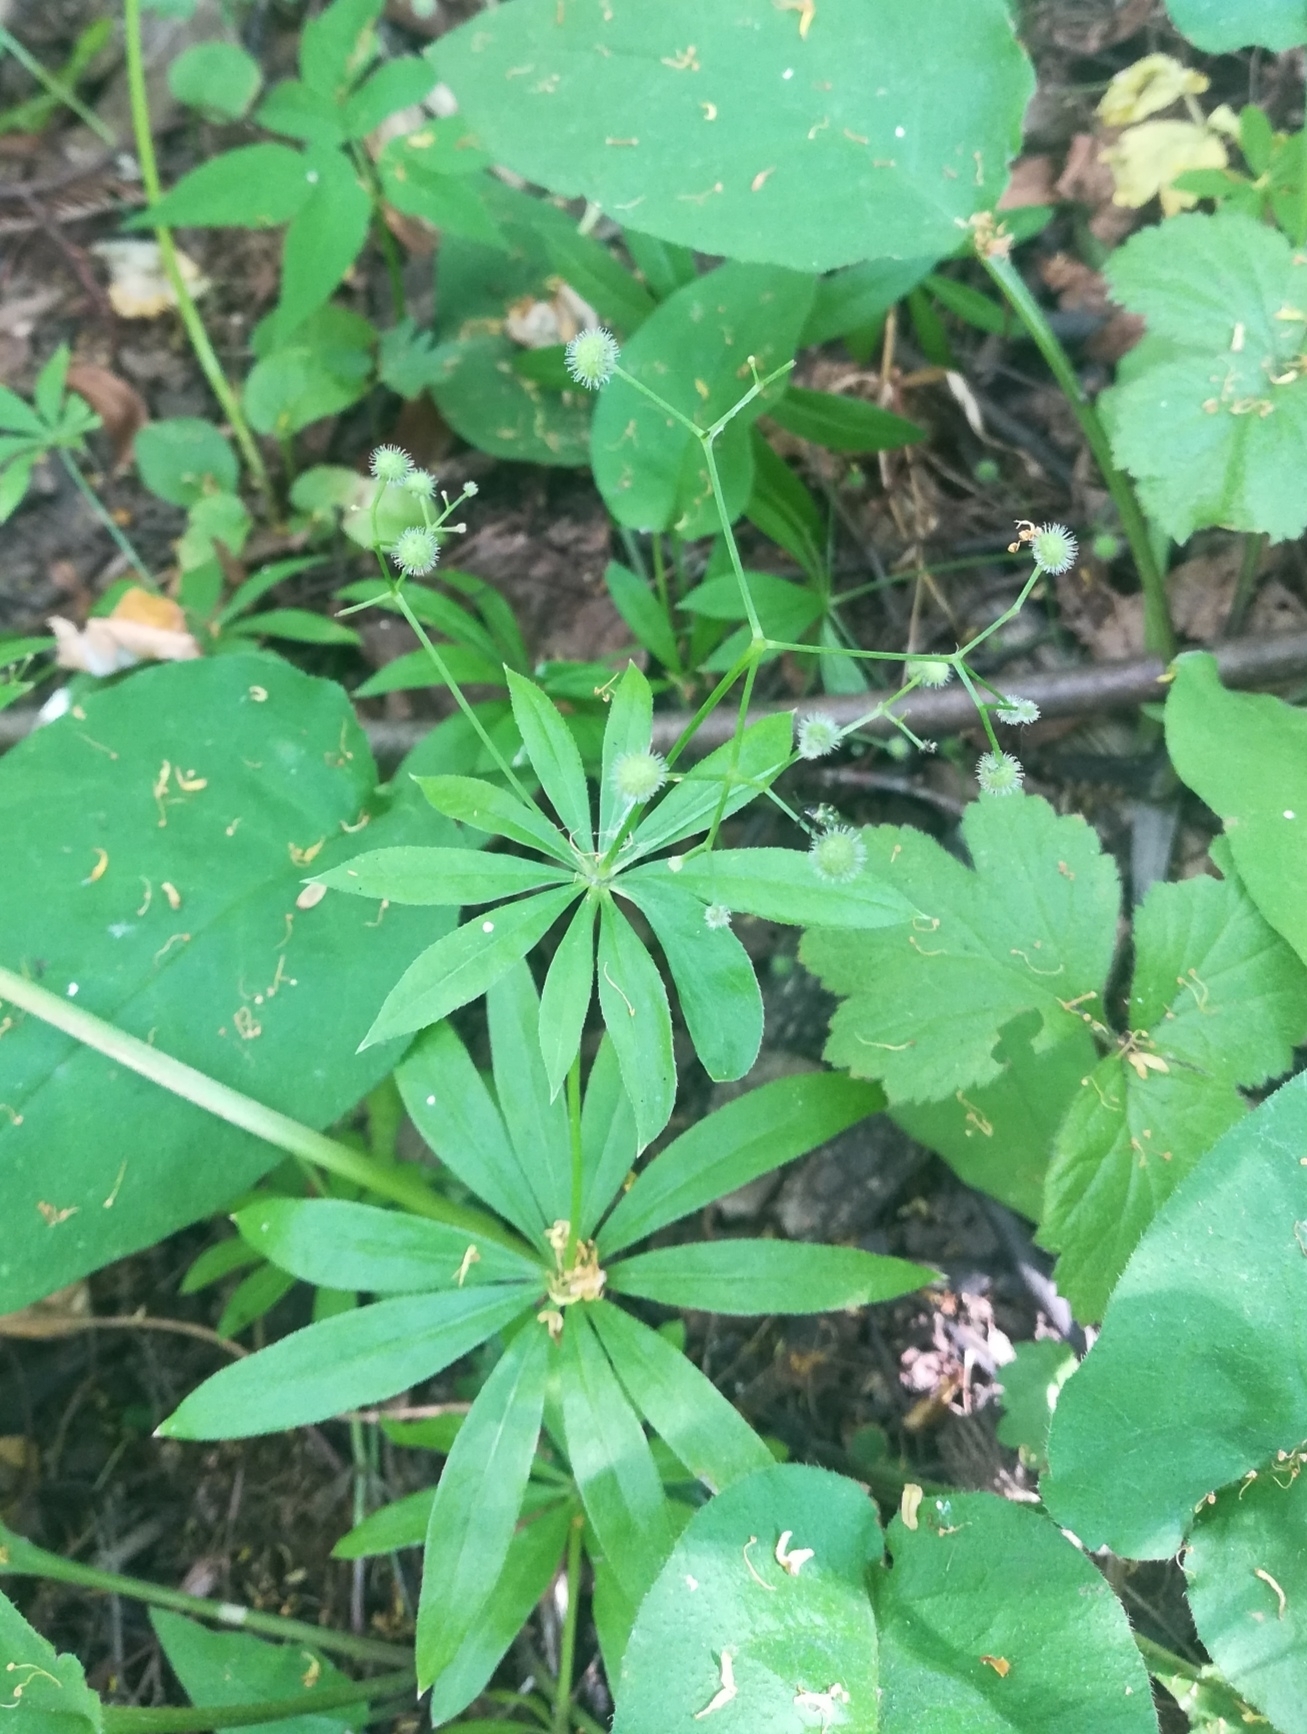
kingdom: Plantae
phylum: Tracheophyta
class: Magnoliopsida
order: Gentianales
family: Rubiaceae
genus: Galium
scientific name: Galium odoratum
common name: Sweet woodruff
